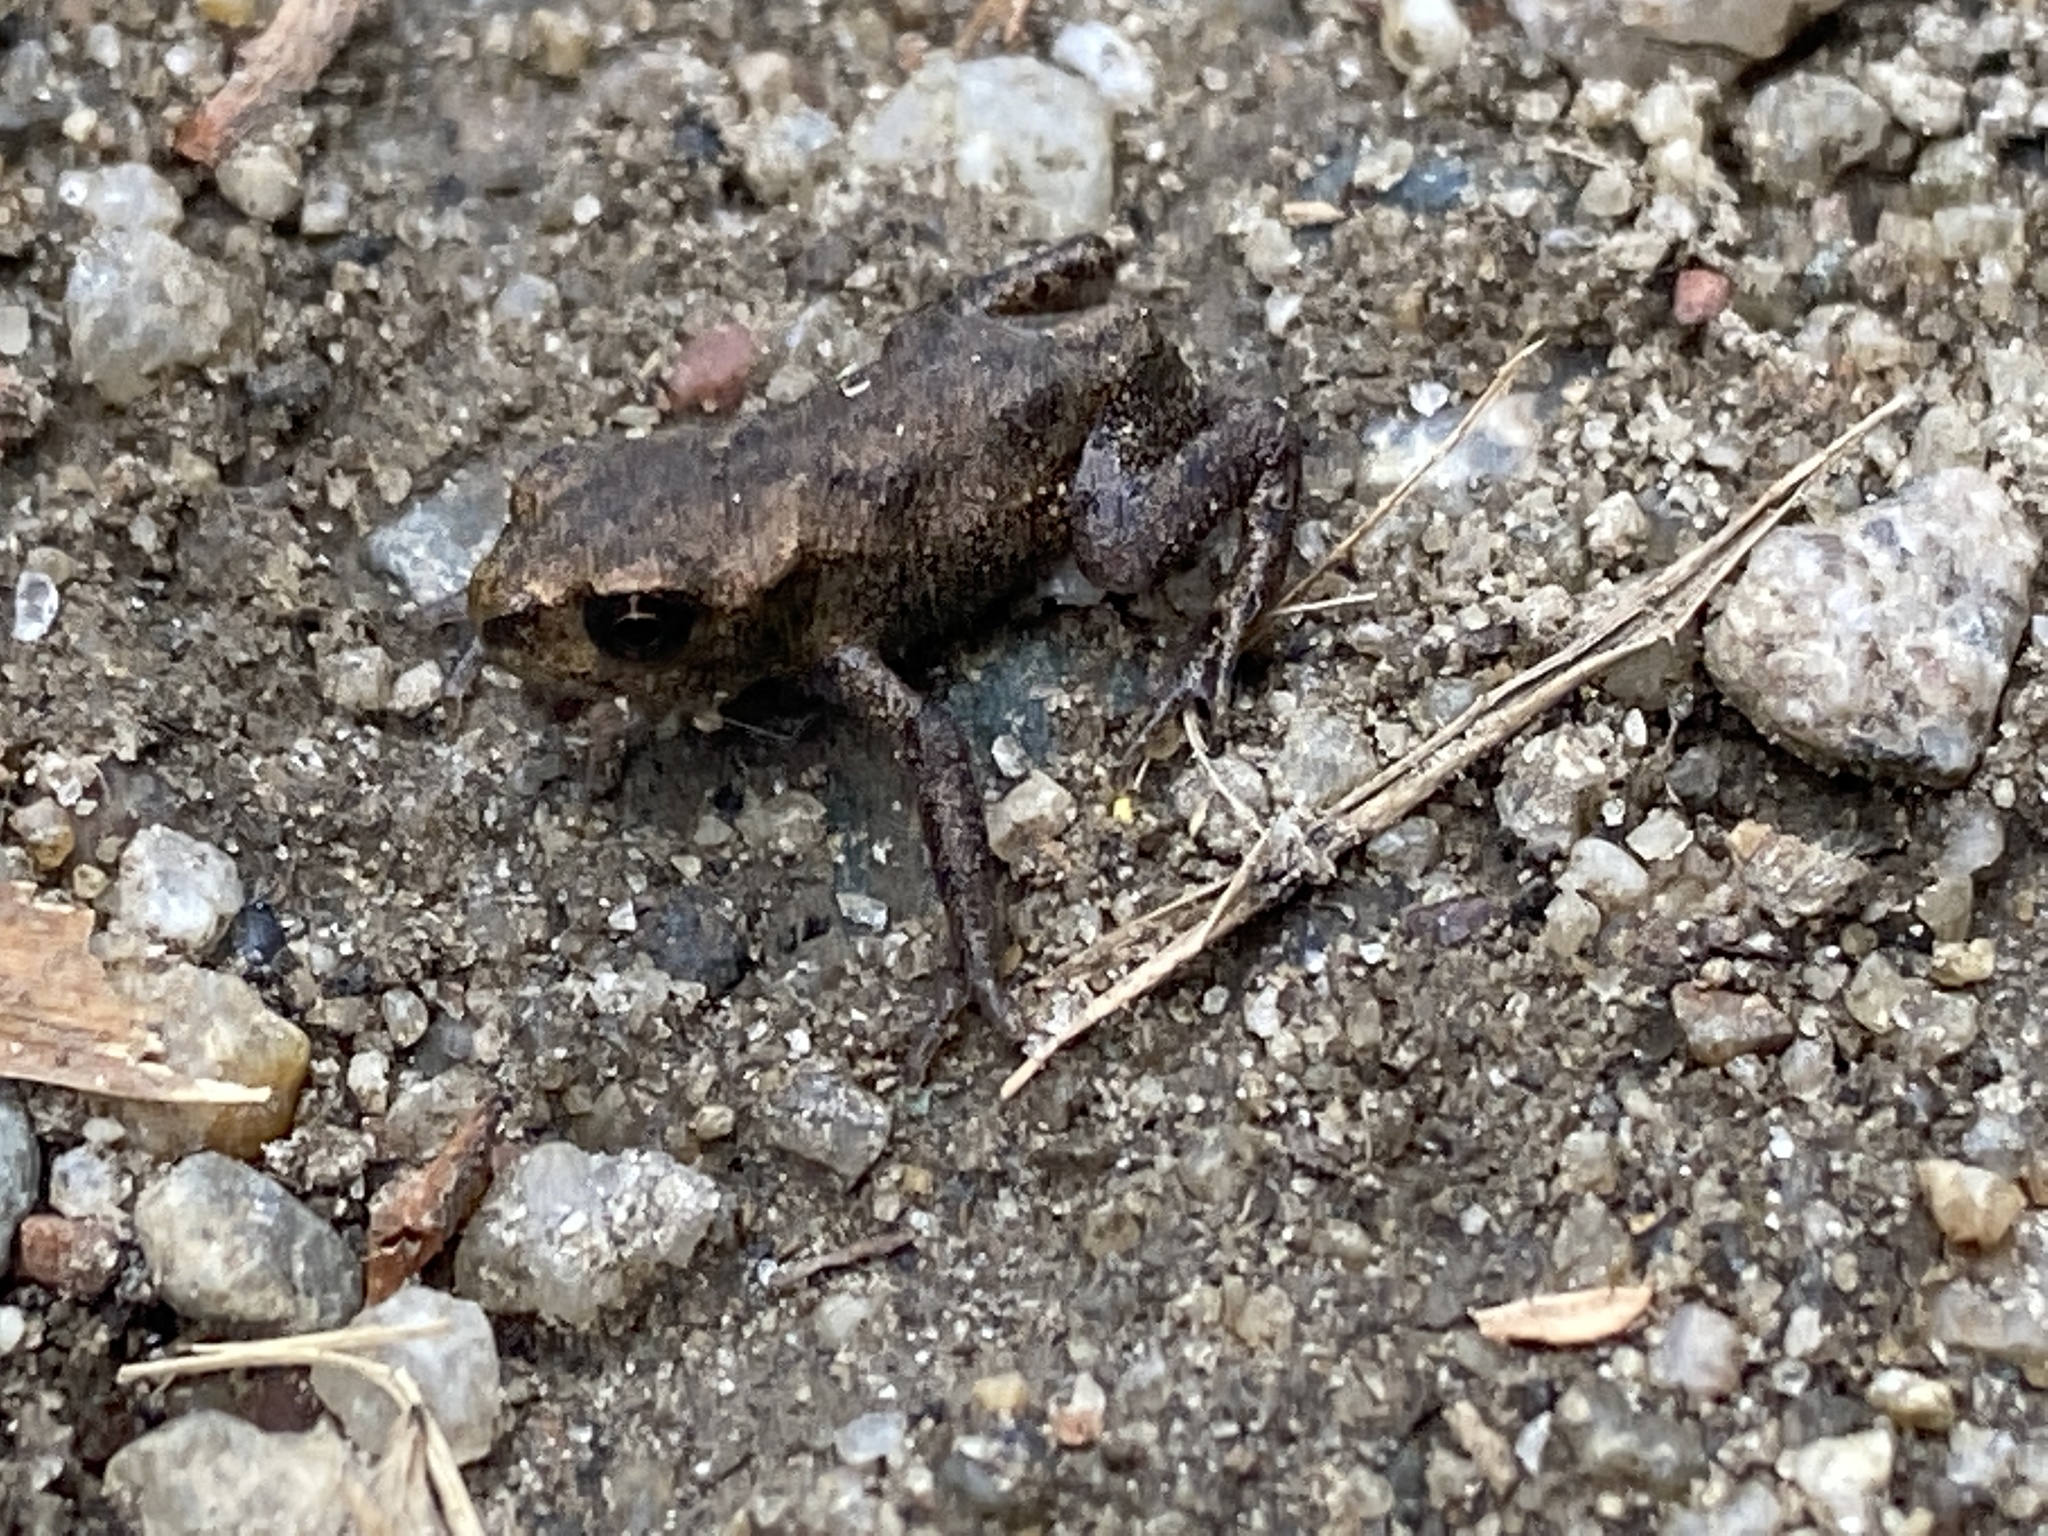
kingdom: Animalia
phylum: Chordata
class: Amphibia
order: Anura
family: Bufonidae
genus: Bufo
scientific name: Bufo bufo
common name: Common toad
